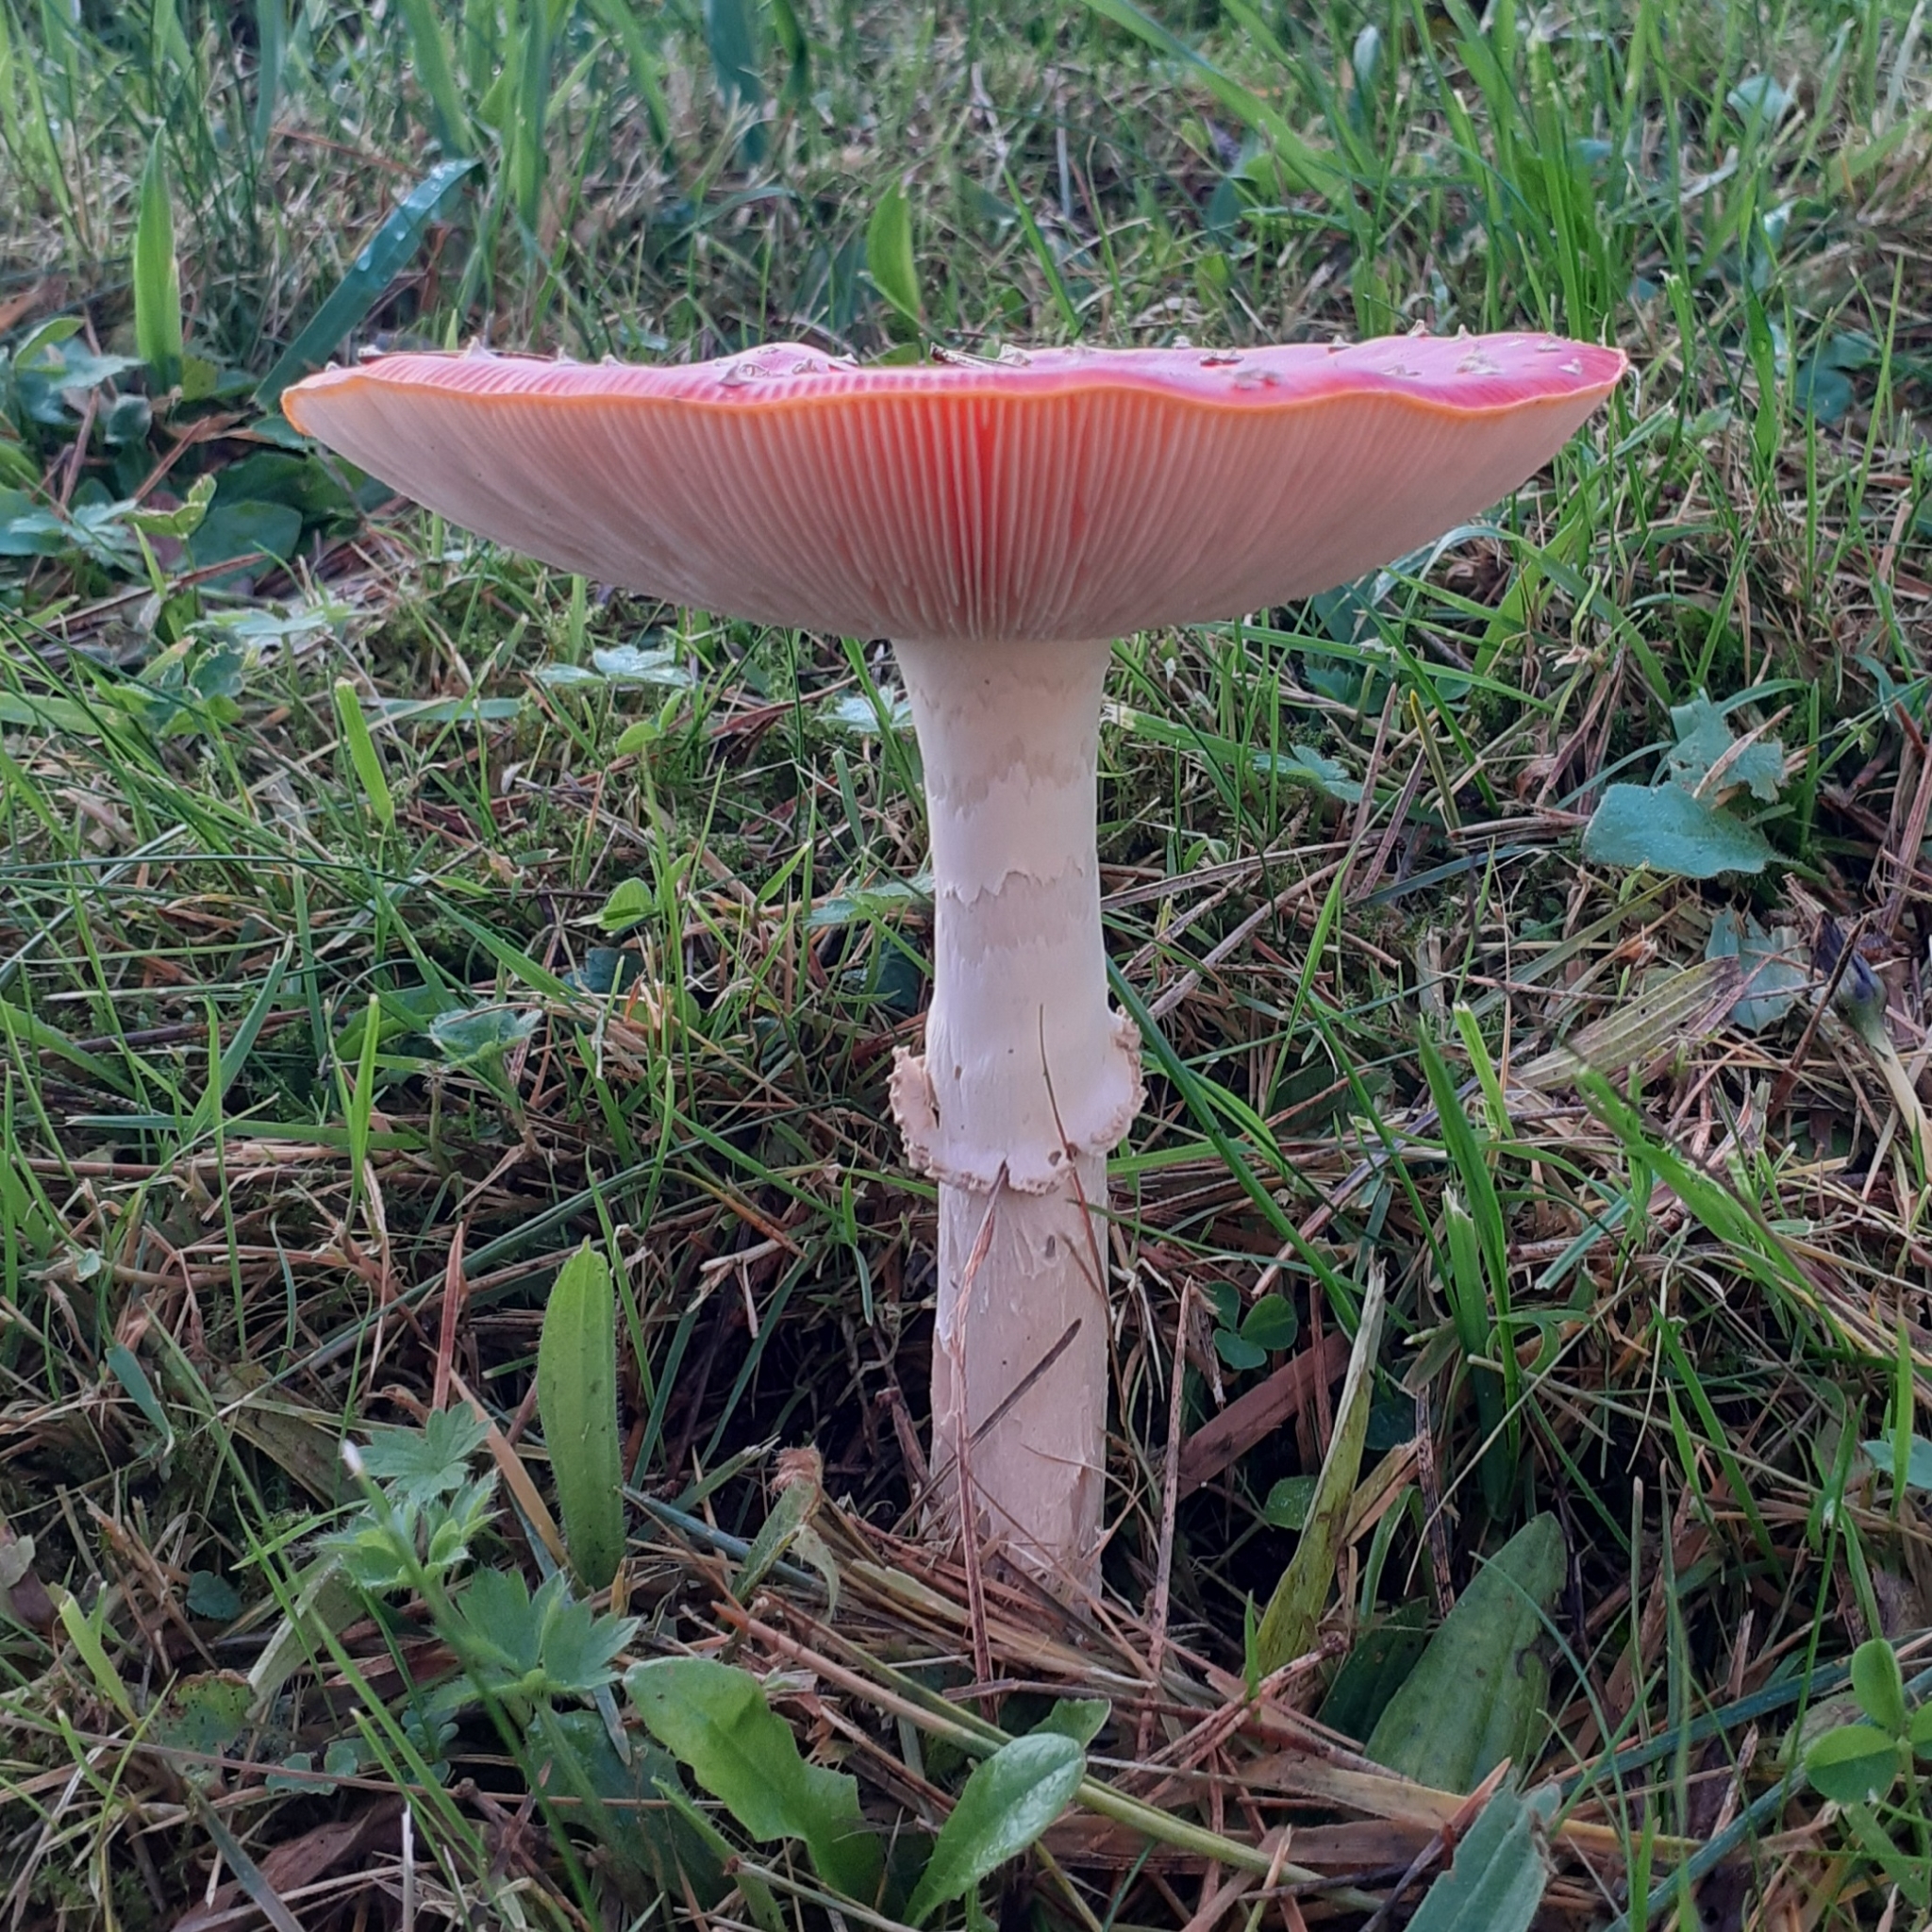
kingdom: Fungi
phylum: Basidiomycota
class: Agaricomycetes
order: Agaricales
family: Amanitaceae
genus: Amanita
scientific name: Amanita muscaria
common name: Fly agaric
